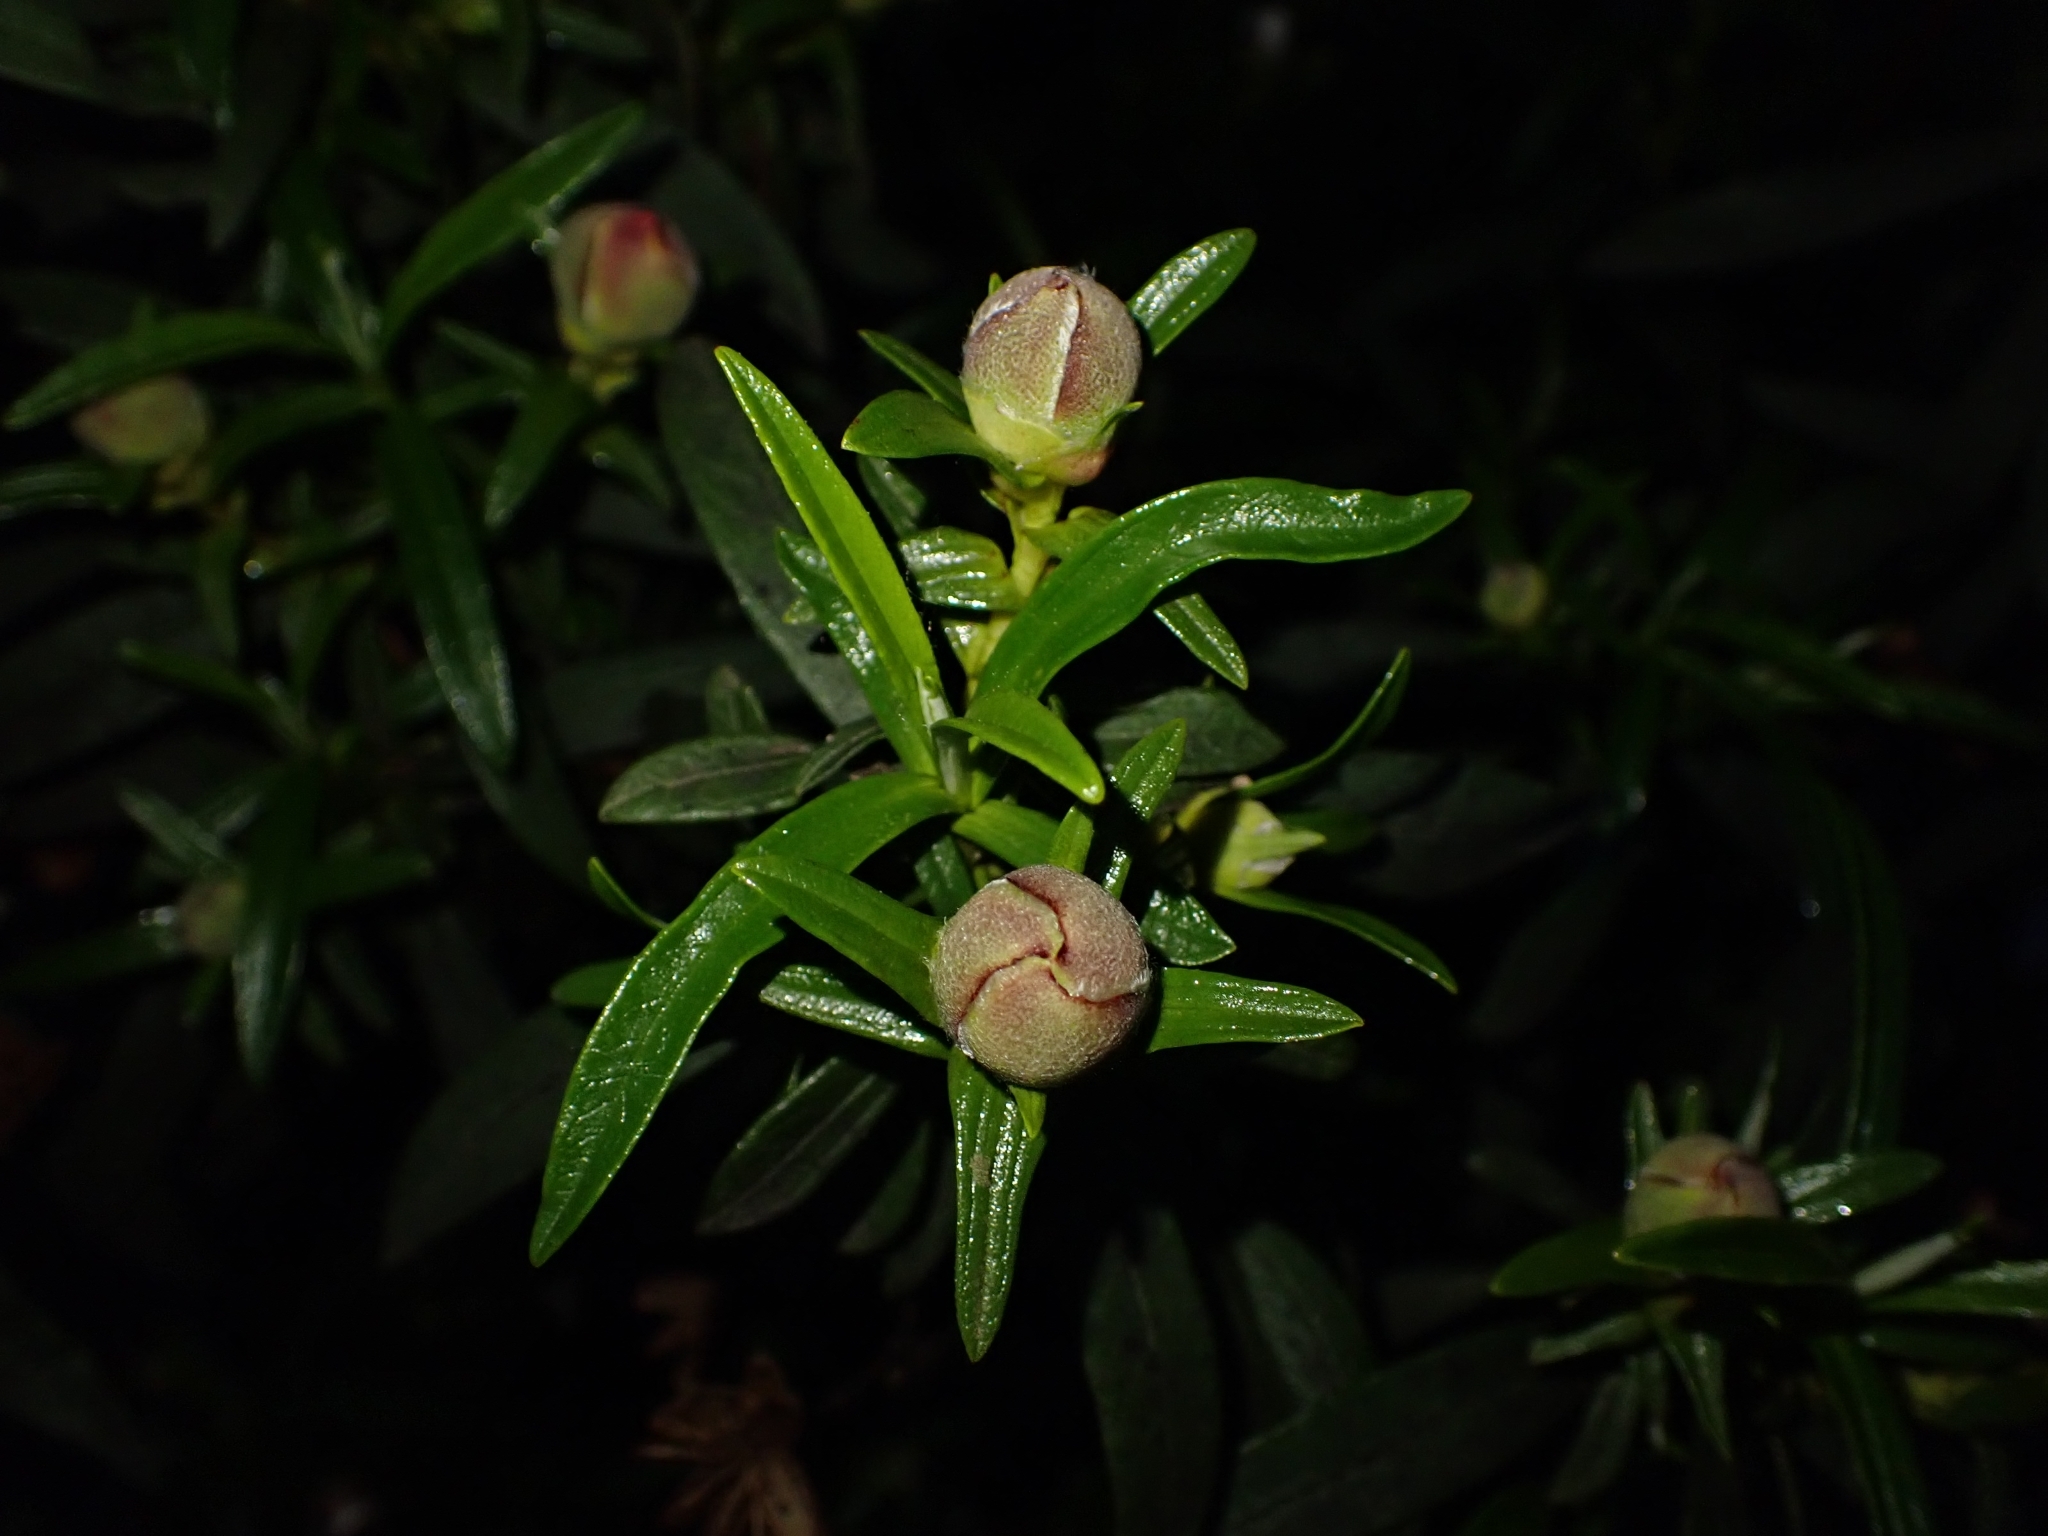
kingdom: Plantae
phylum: Tracheophyta
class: Magnoliopsida
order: Malvales
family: Cistaceae
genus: Cistus
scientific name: Cistus ladanifer
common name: Common gum cistus
